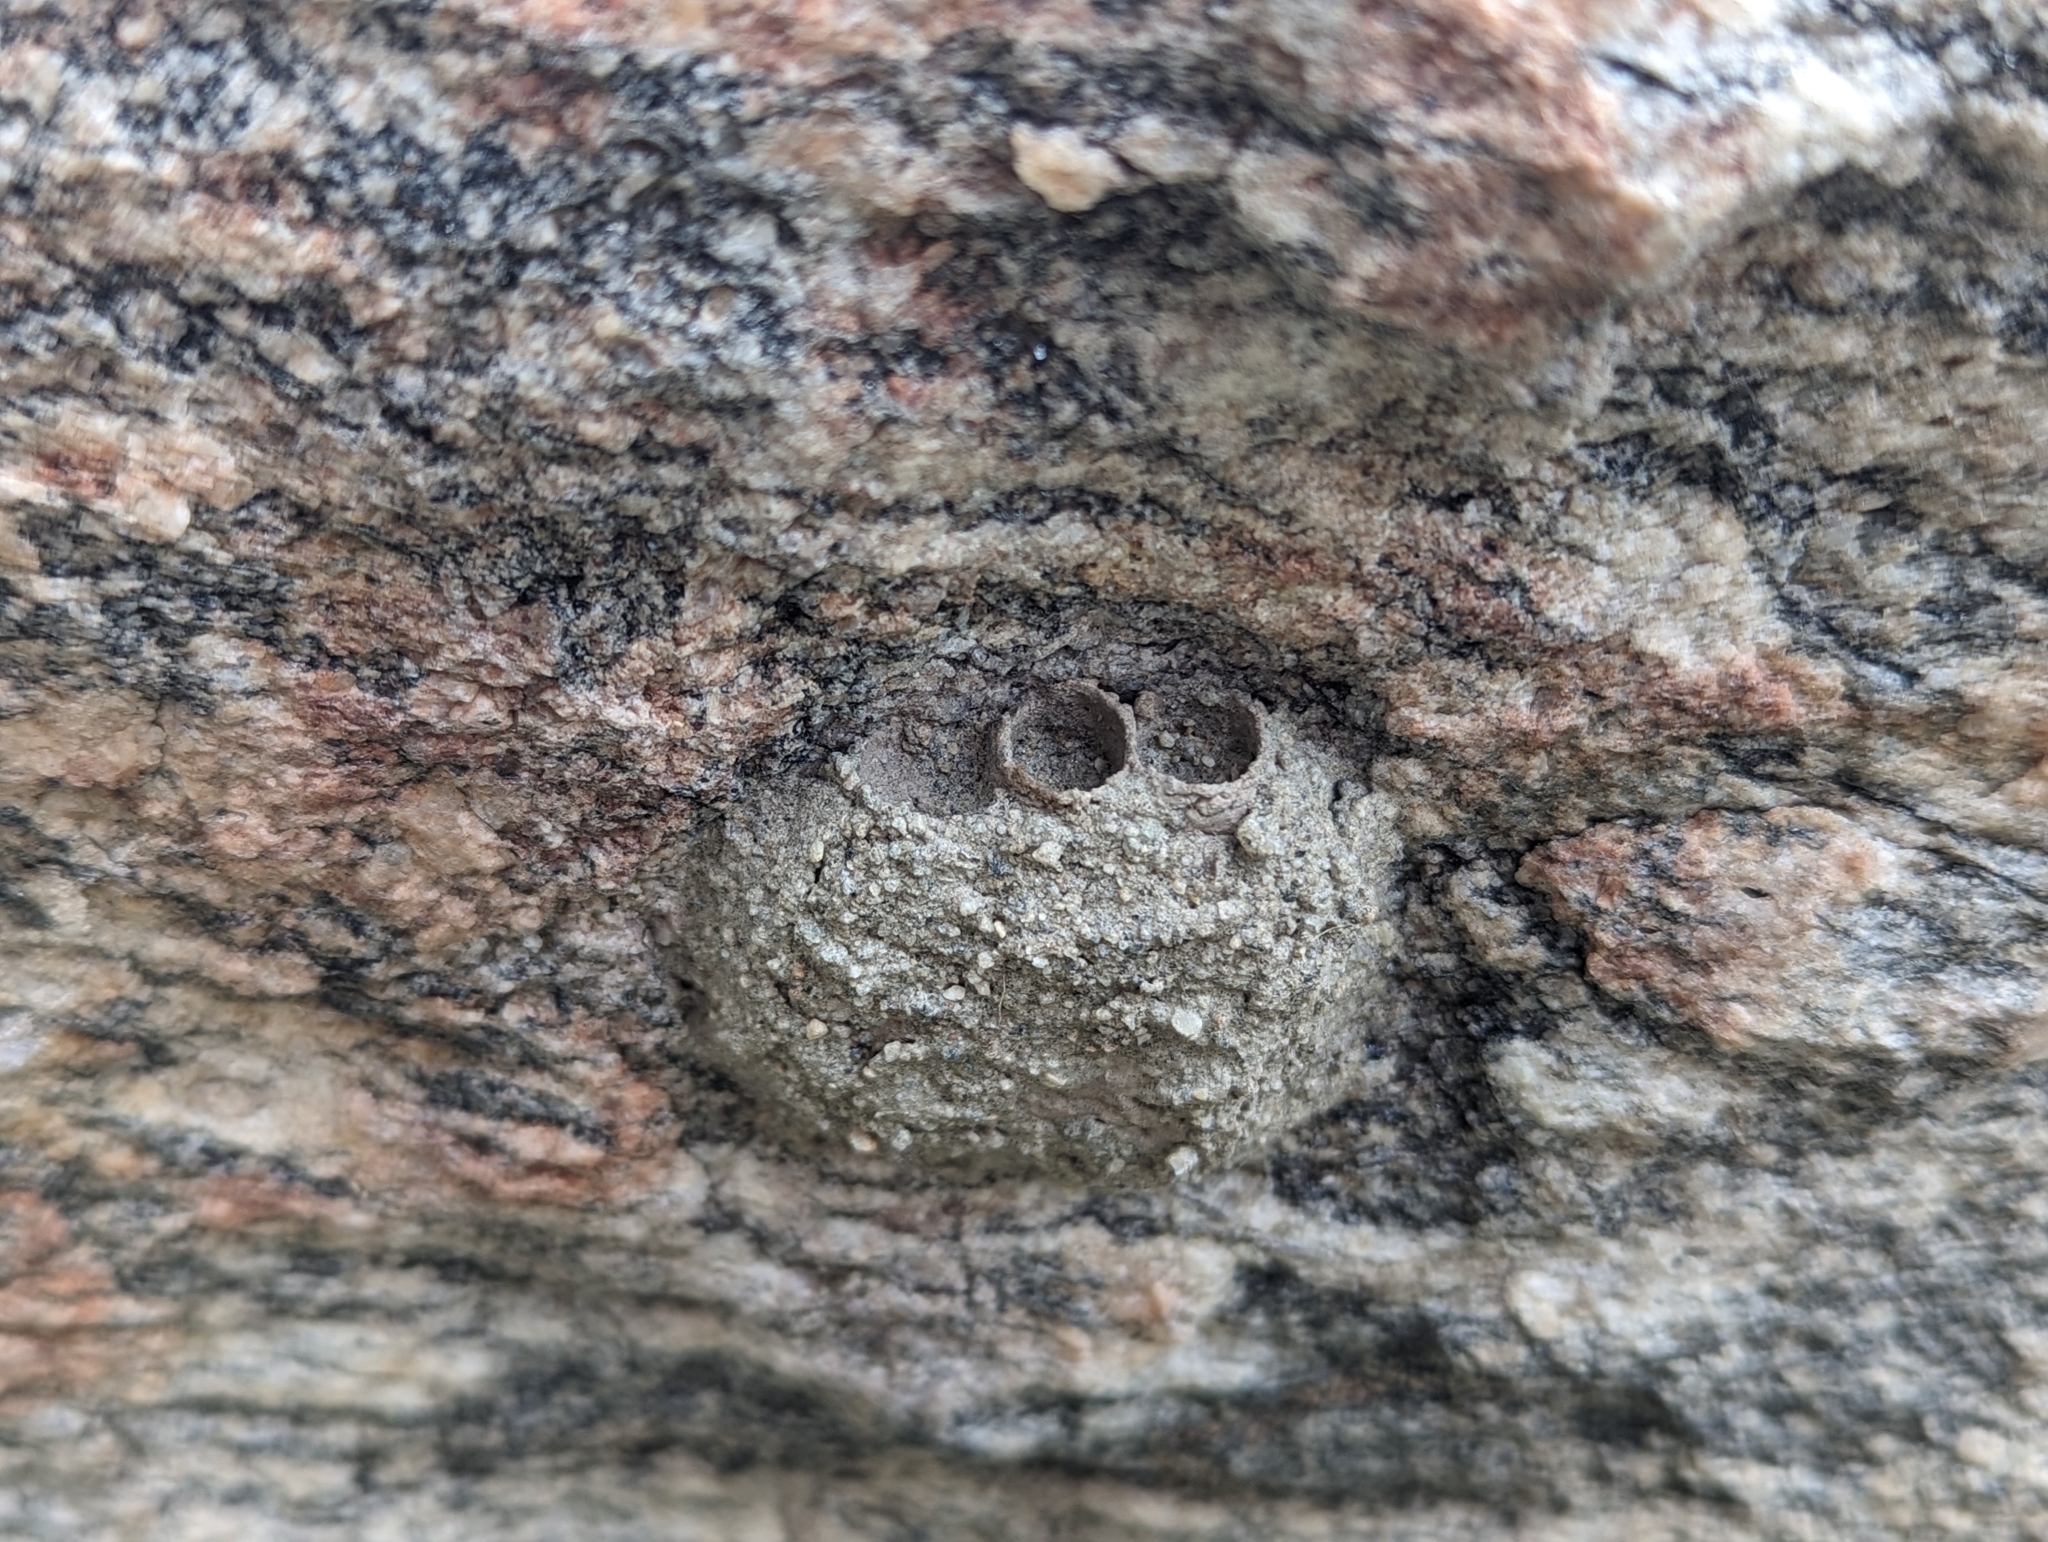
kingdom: Animalia
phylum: Arthropoda
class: Insecta
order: Hymenoptera
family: Masaridae
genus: Pseudomasaris
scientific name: Pseudomasaris
